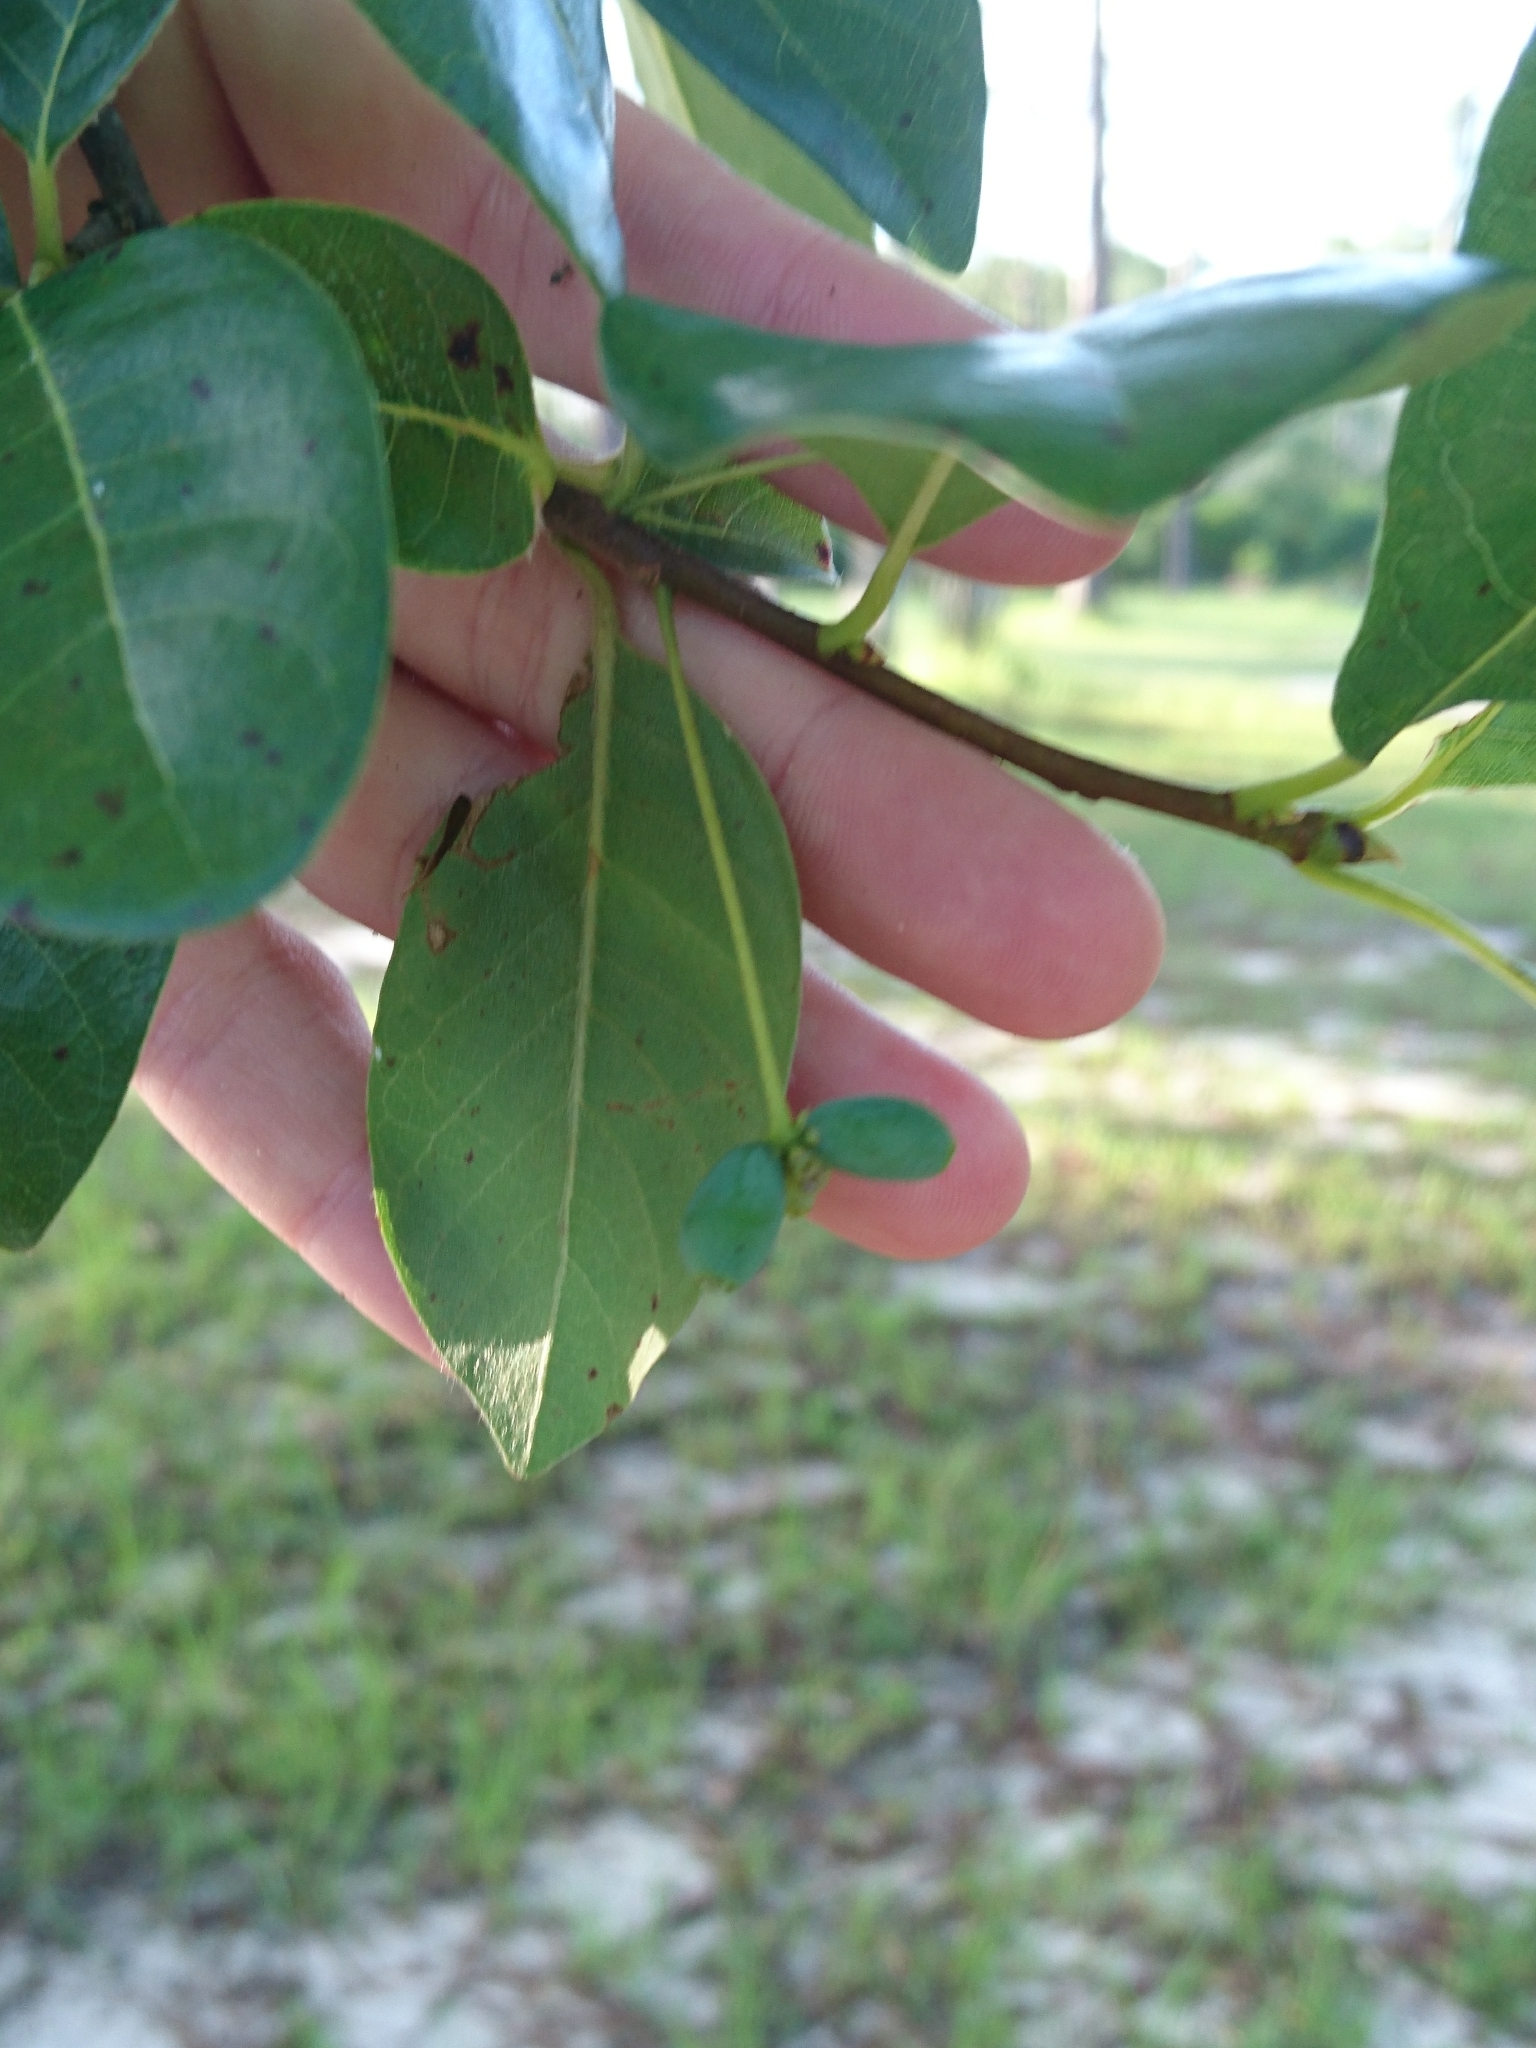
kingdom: Plantae
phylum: Tracheophyta
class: Magnoliopsida
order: Cornales
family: Nyssaceae
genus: Nyssa
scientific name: Nyssa sylvatica
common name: Black tupelo
